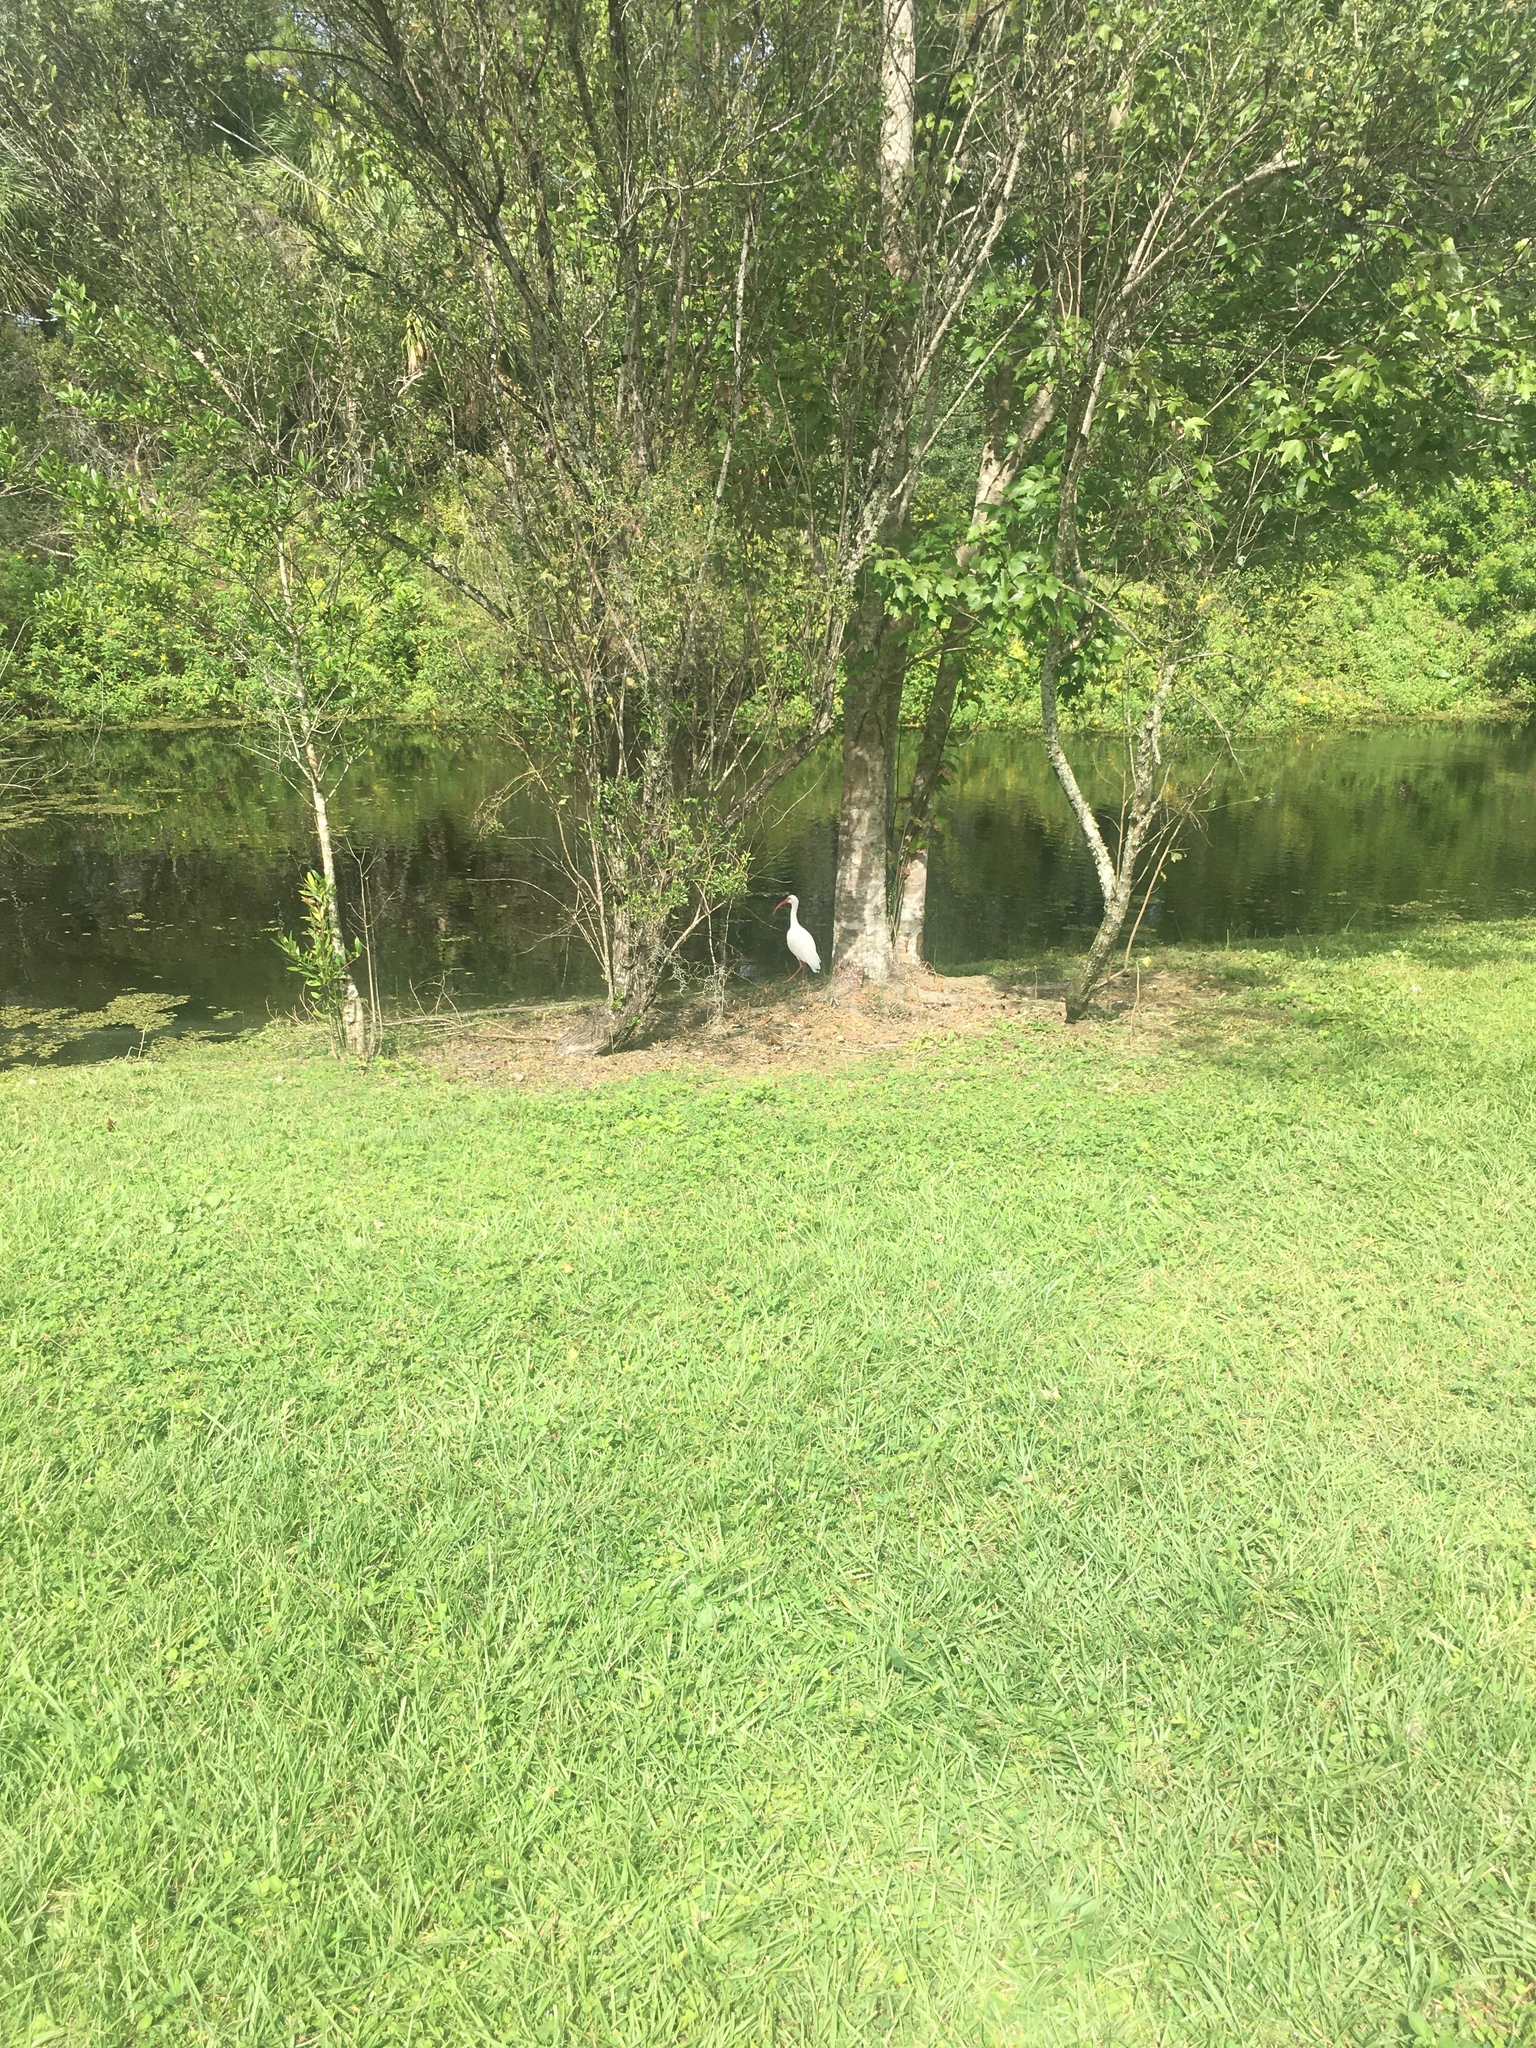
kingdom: Animalia
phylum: Chordata
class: Aves
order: Pelecaniformes
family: Threskiornithidae
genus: Eudocimus
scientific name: Eudocimus albus
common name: White ibis
